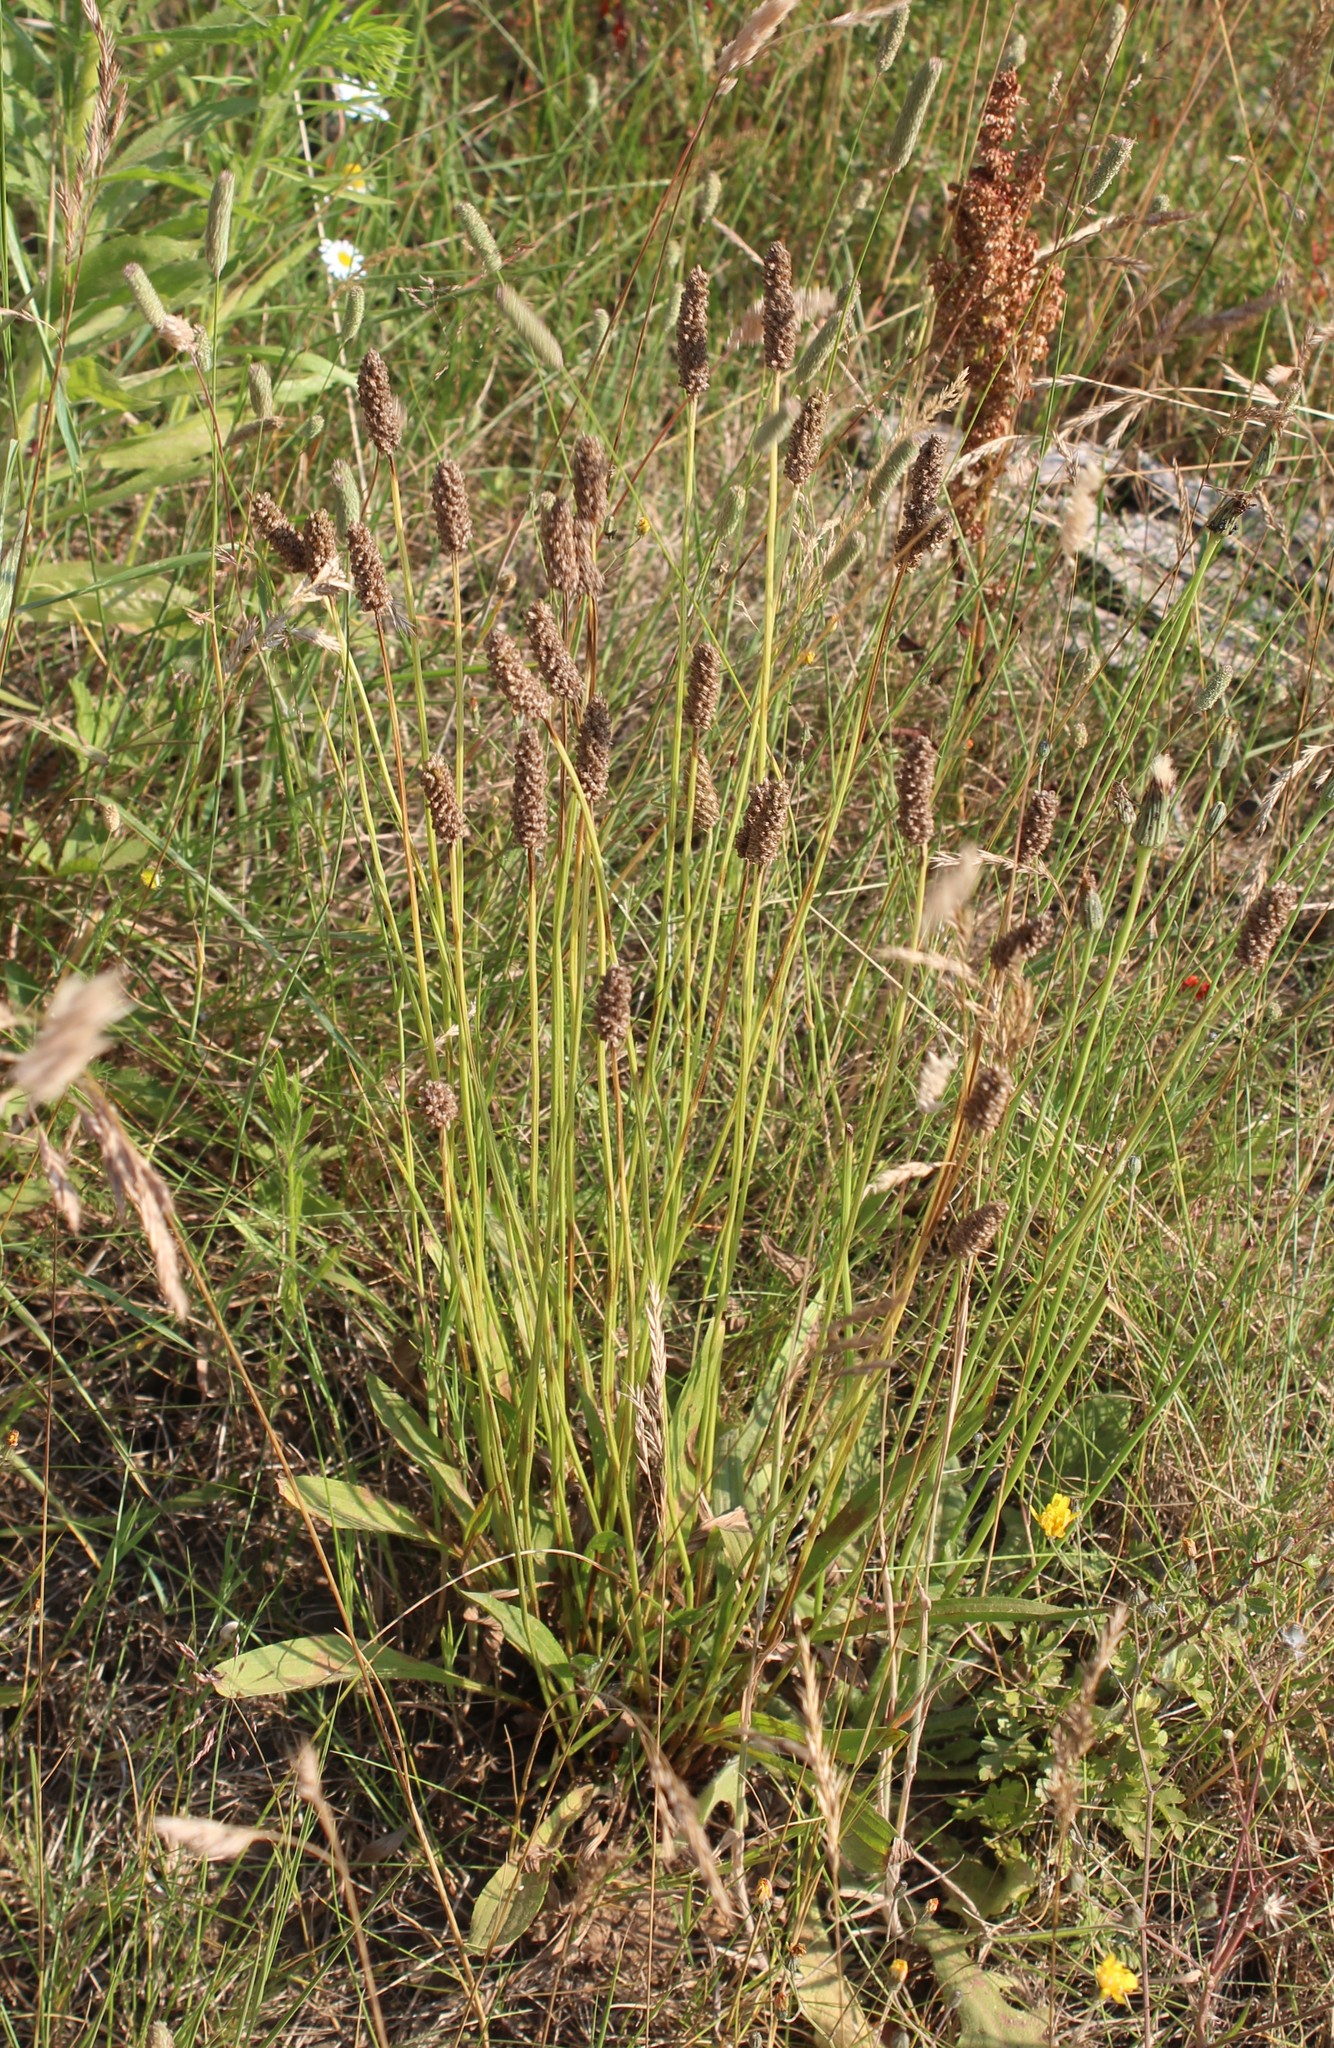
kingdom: Plantae
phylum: Tracheophyta
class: Magnoliopsida
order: Lamiales
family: Plantaginaceae
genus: Plantago
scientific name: Plantago lanceolata
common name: Ribwort plantain
